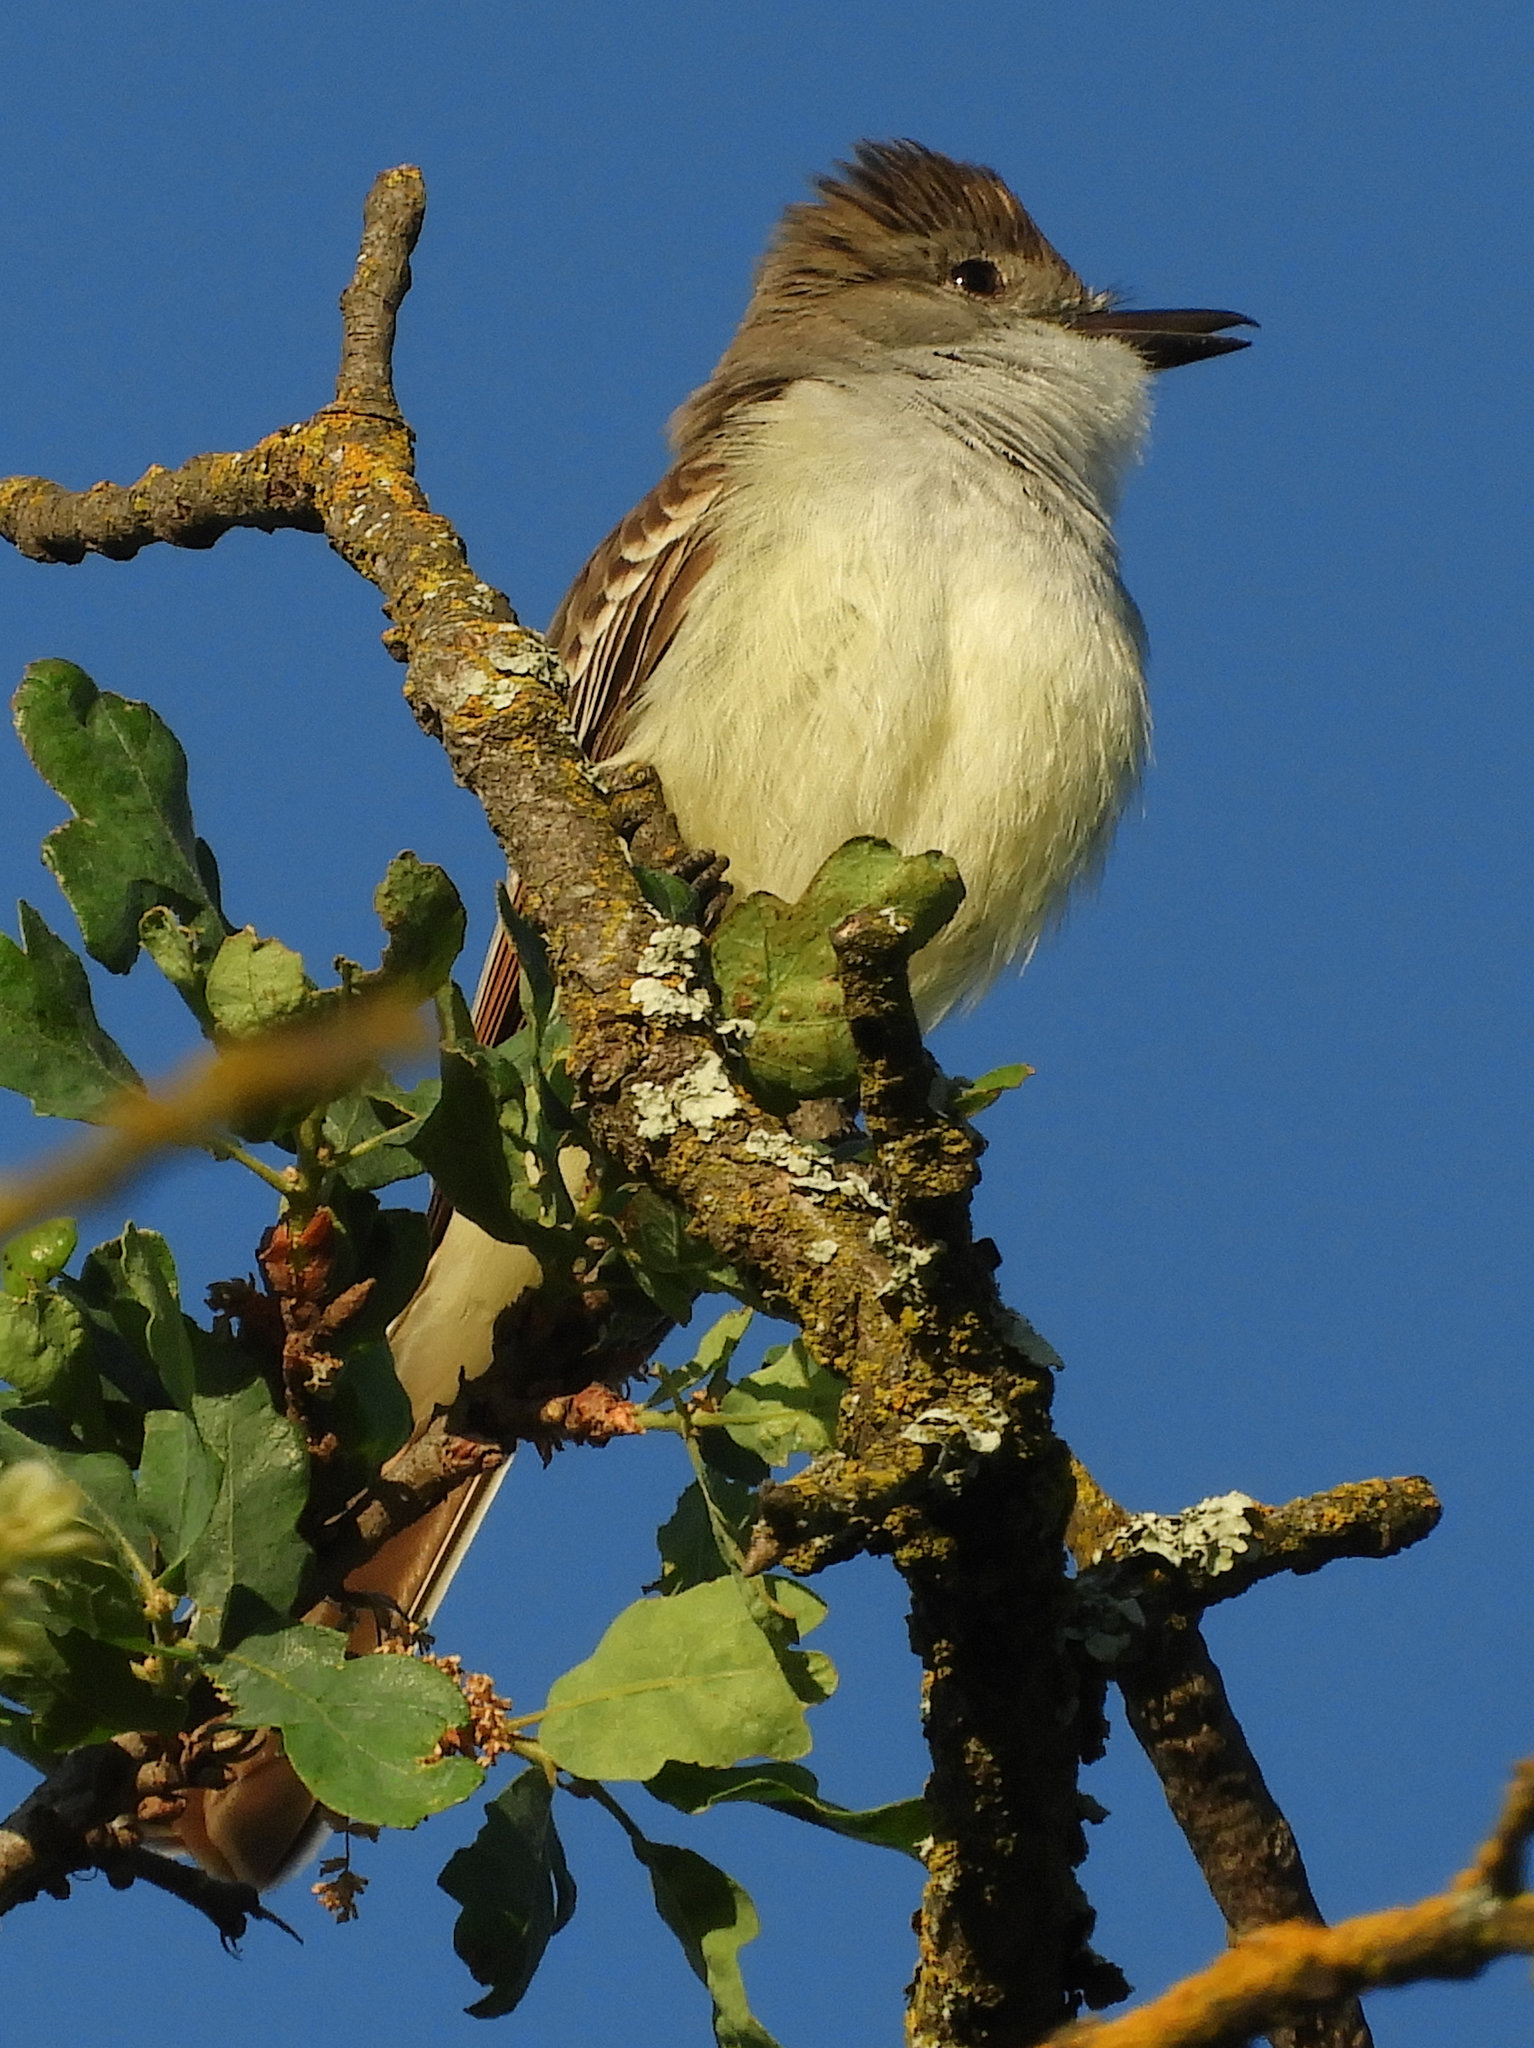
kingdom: Animalia
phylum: Chordata
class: Aves
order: Passeriformes
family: Tyrannidae
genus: Myiarchus
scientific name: Myiarchus cinerascens
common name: Ash-throated flycatcher
